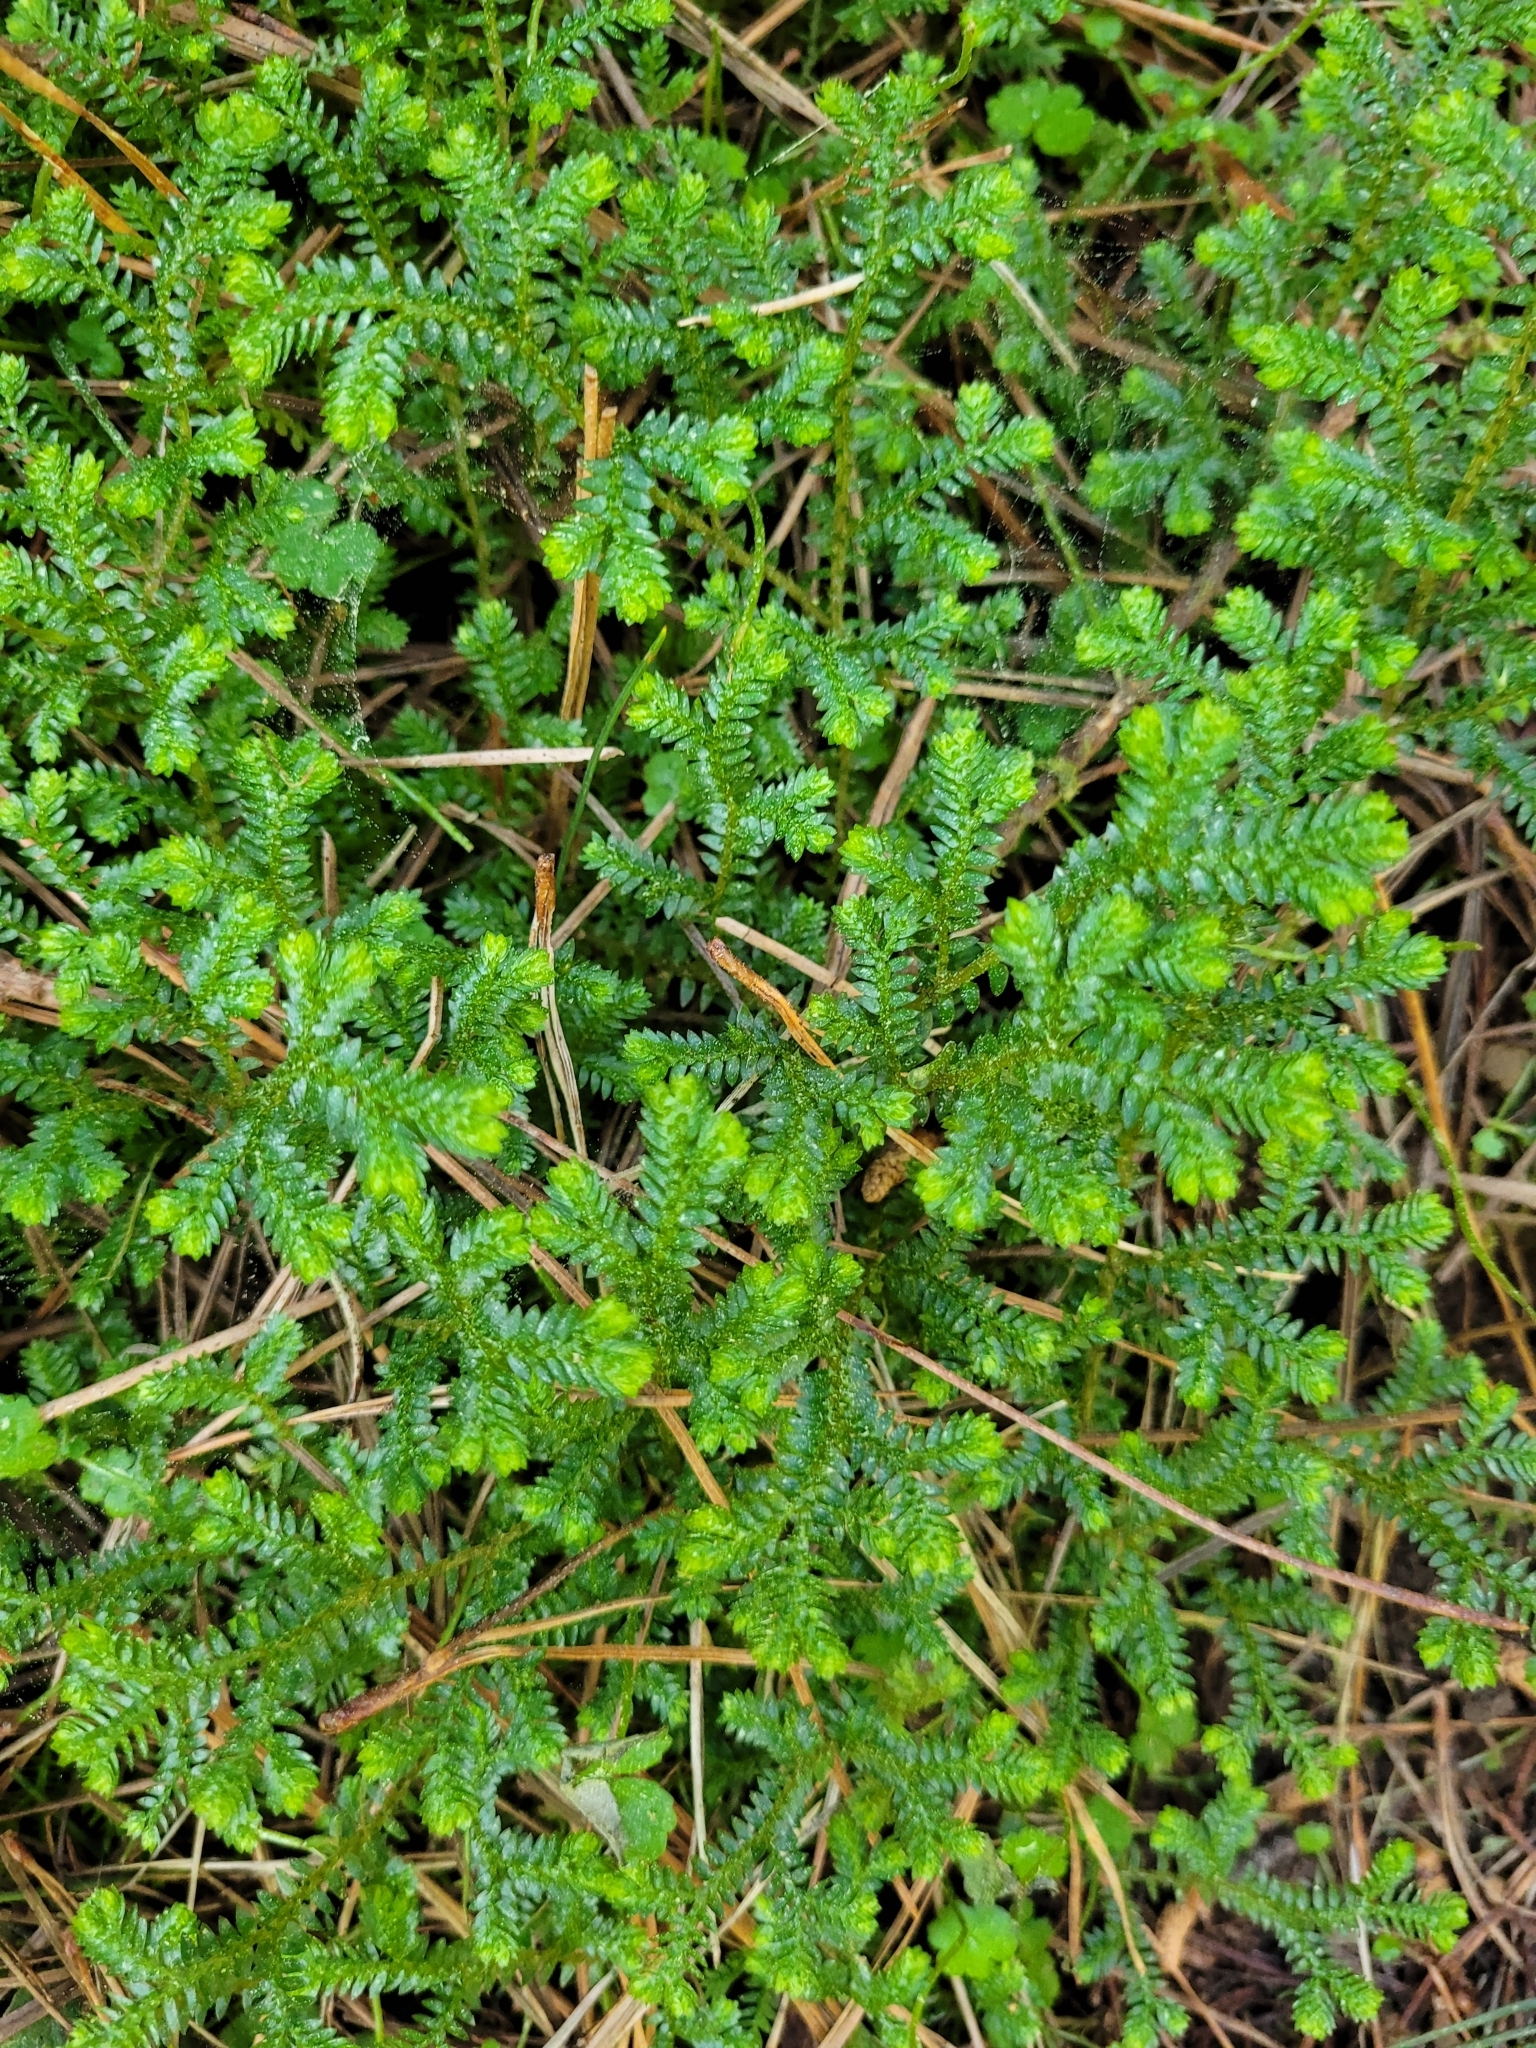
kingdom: Plantae
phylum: Tracheophyta
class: Lycopodiopsida
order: Selaginellales
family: Selaginellaceae
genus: Selaginella
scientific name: Selaginella kraussiana
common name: Krauss' spikemoss
